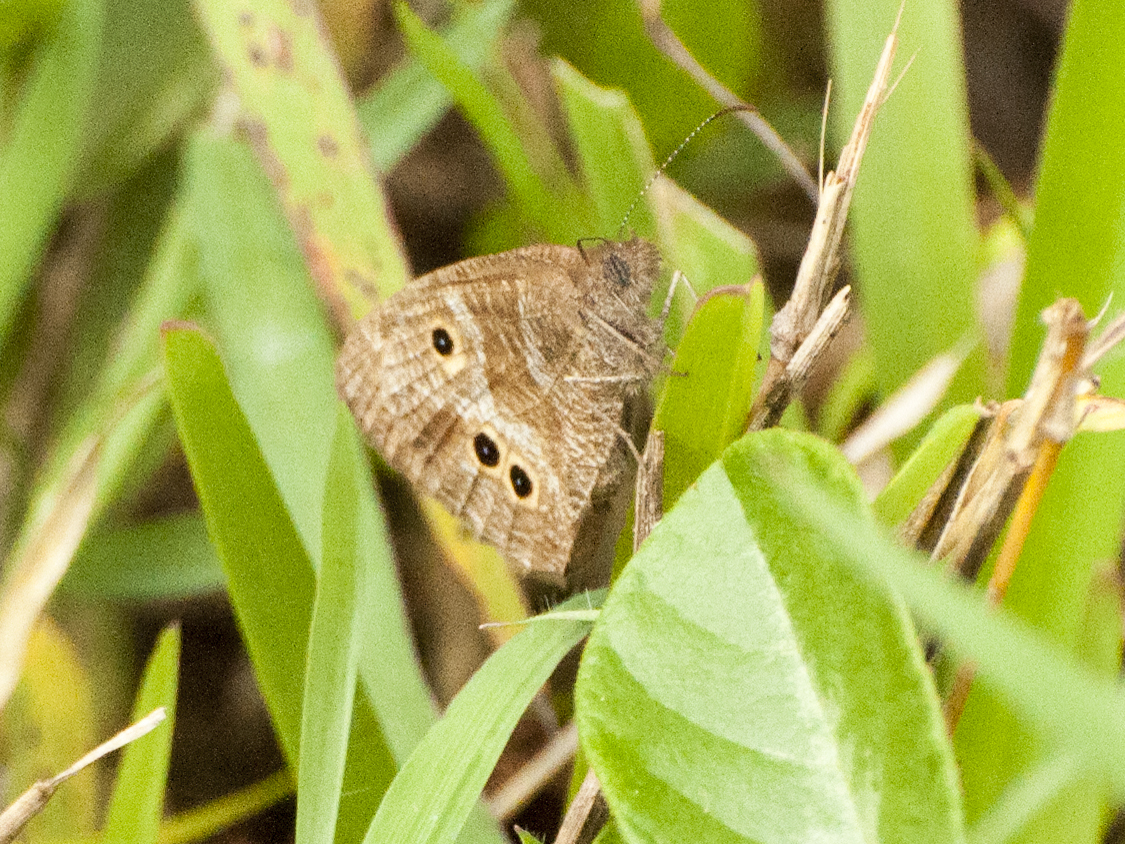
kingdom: Animalia
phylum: Arthropoda
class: Insecta
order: Lepidoptera
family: Nymphalidae
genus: Ypthima
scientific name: Ypthima Strabena triophthalma
